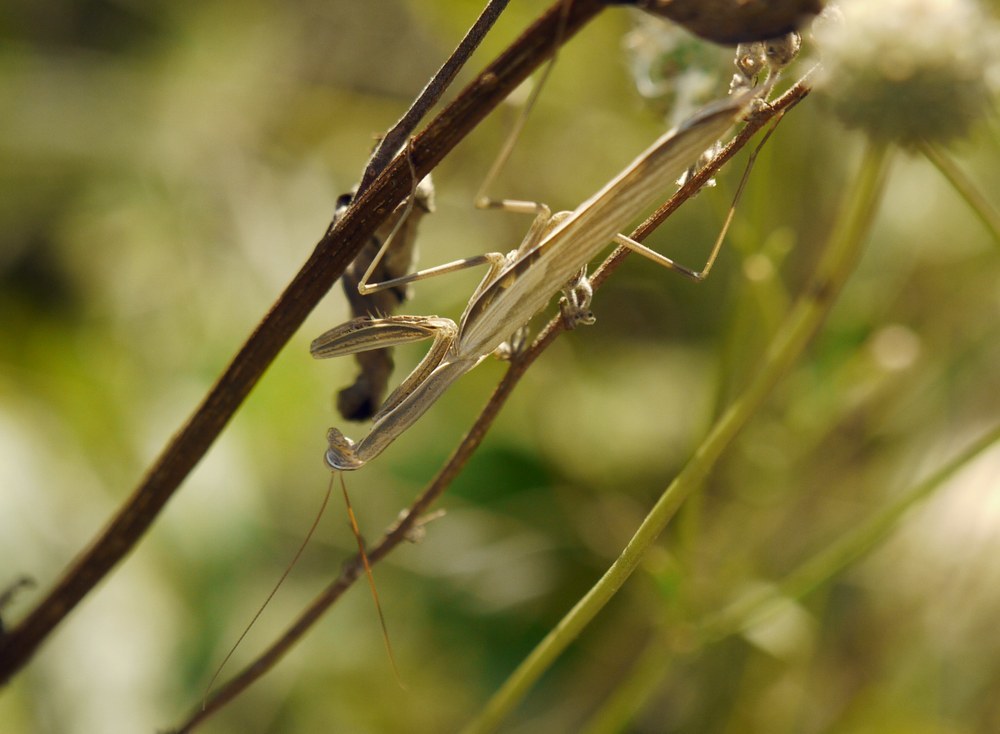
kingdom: Animalia
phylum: Arthropoda
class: Insecta
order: Mantodea
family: Mantidae
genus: Mantis
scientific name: Mantis religiosa
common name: Praying mantis
